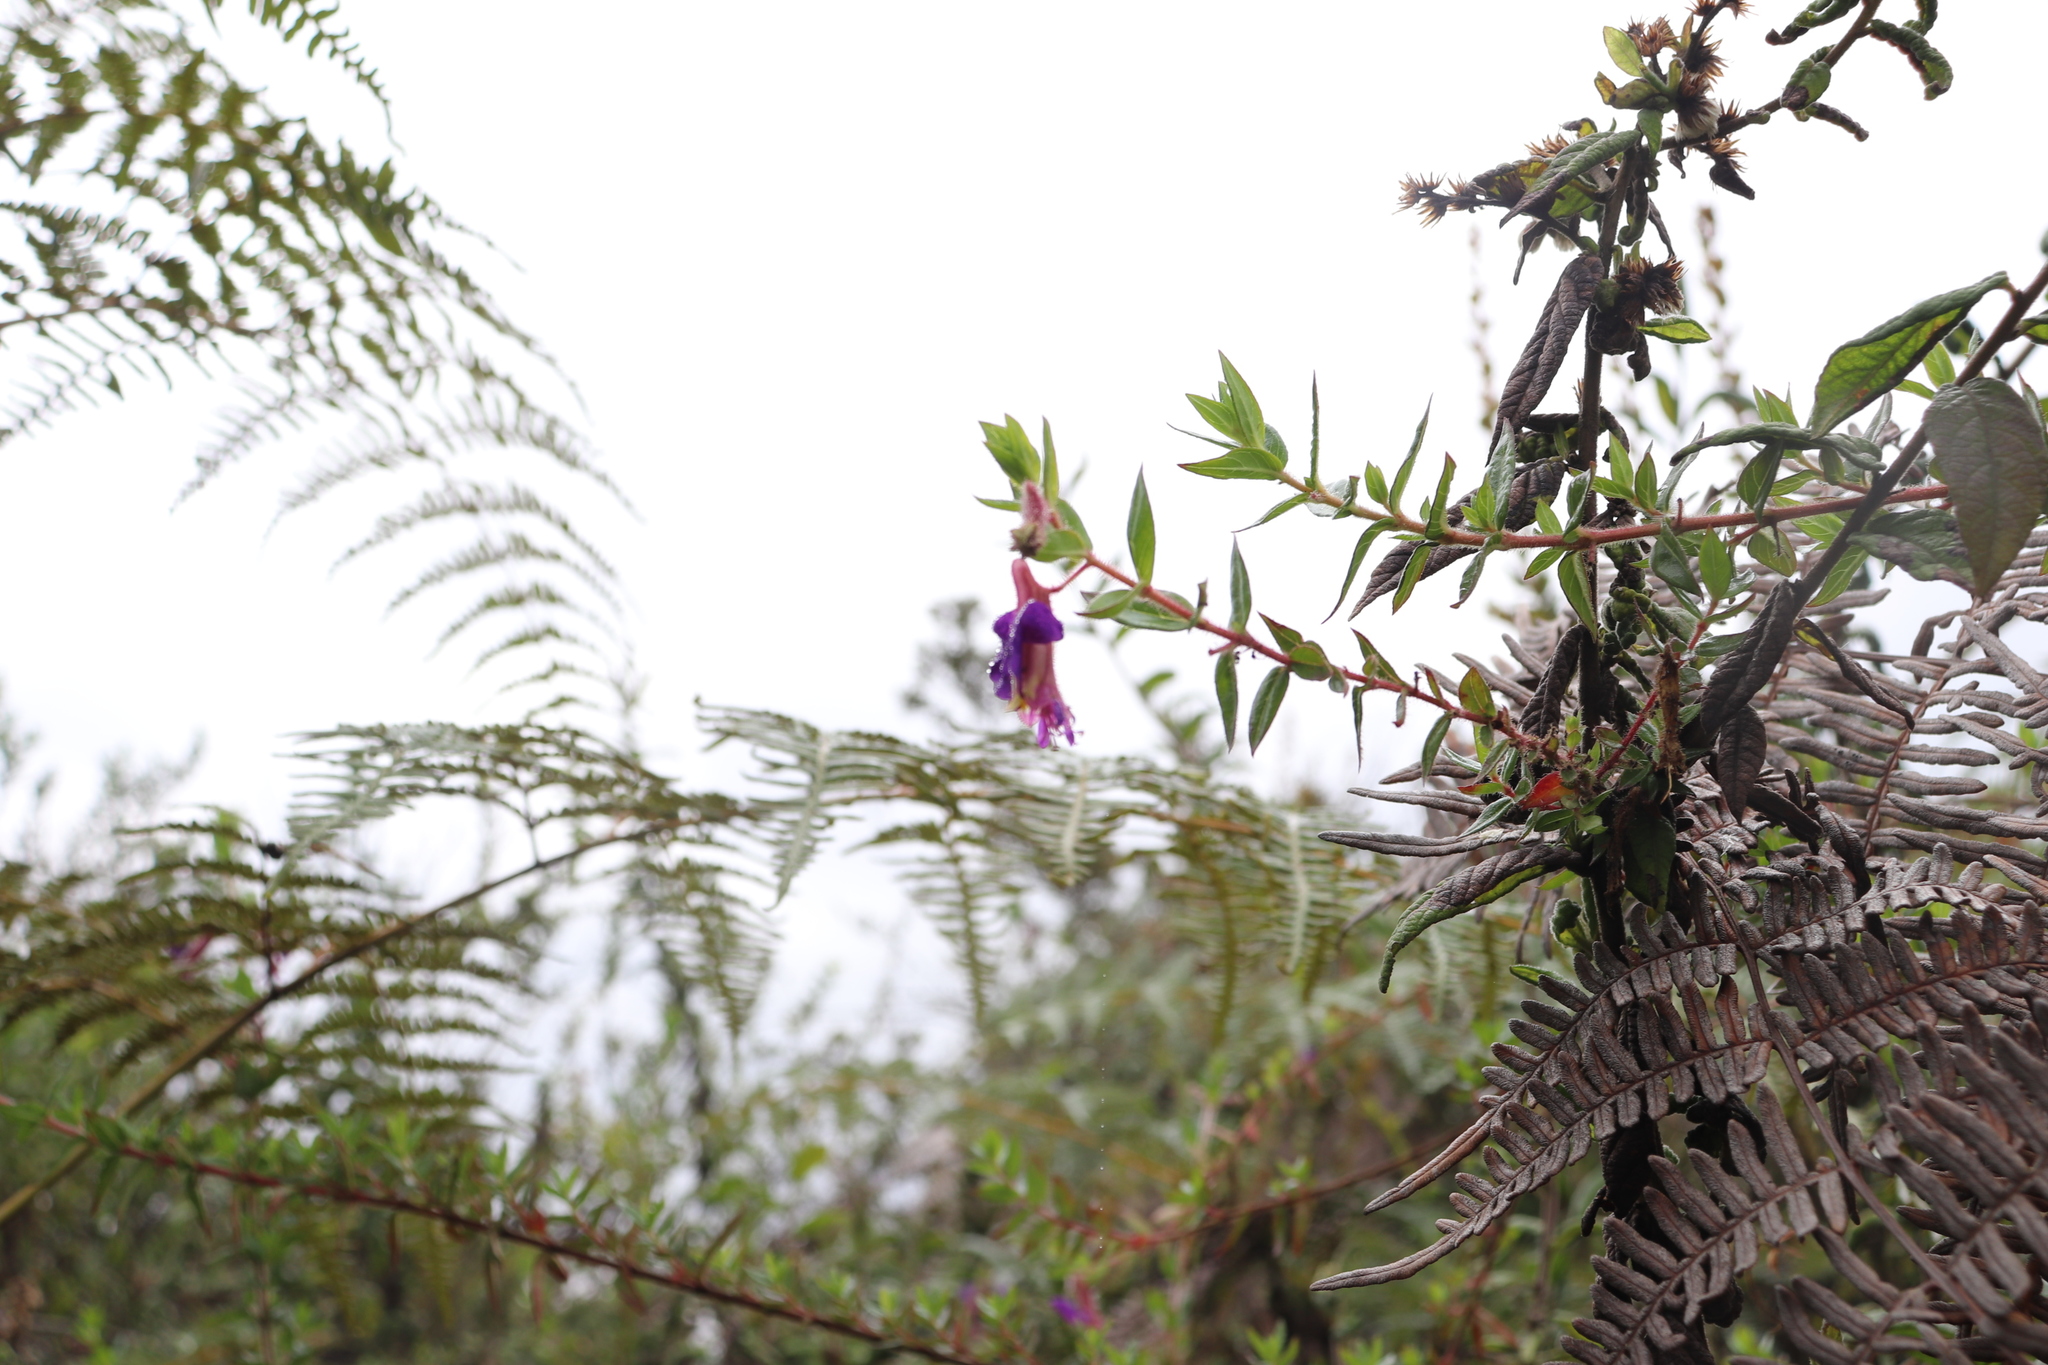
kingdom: Plantae
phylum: Tracheophyta
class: Magnoliopsida
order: Myrtales
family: Lythraceae
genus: Cuphea
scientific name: Cuphea dipetala
